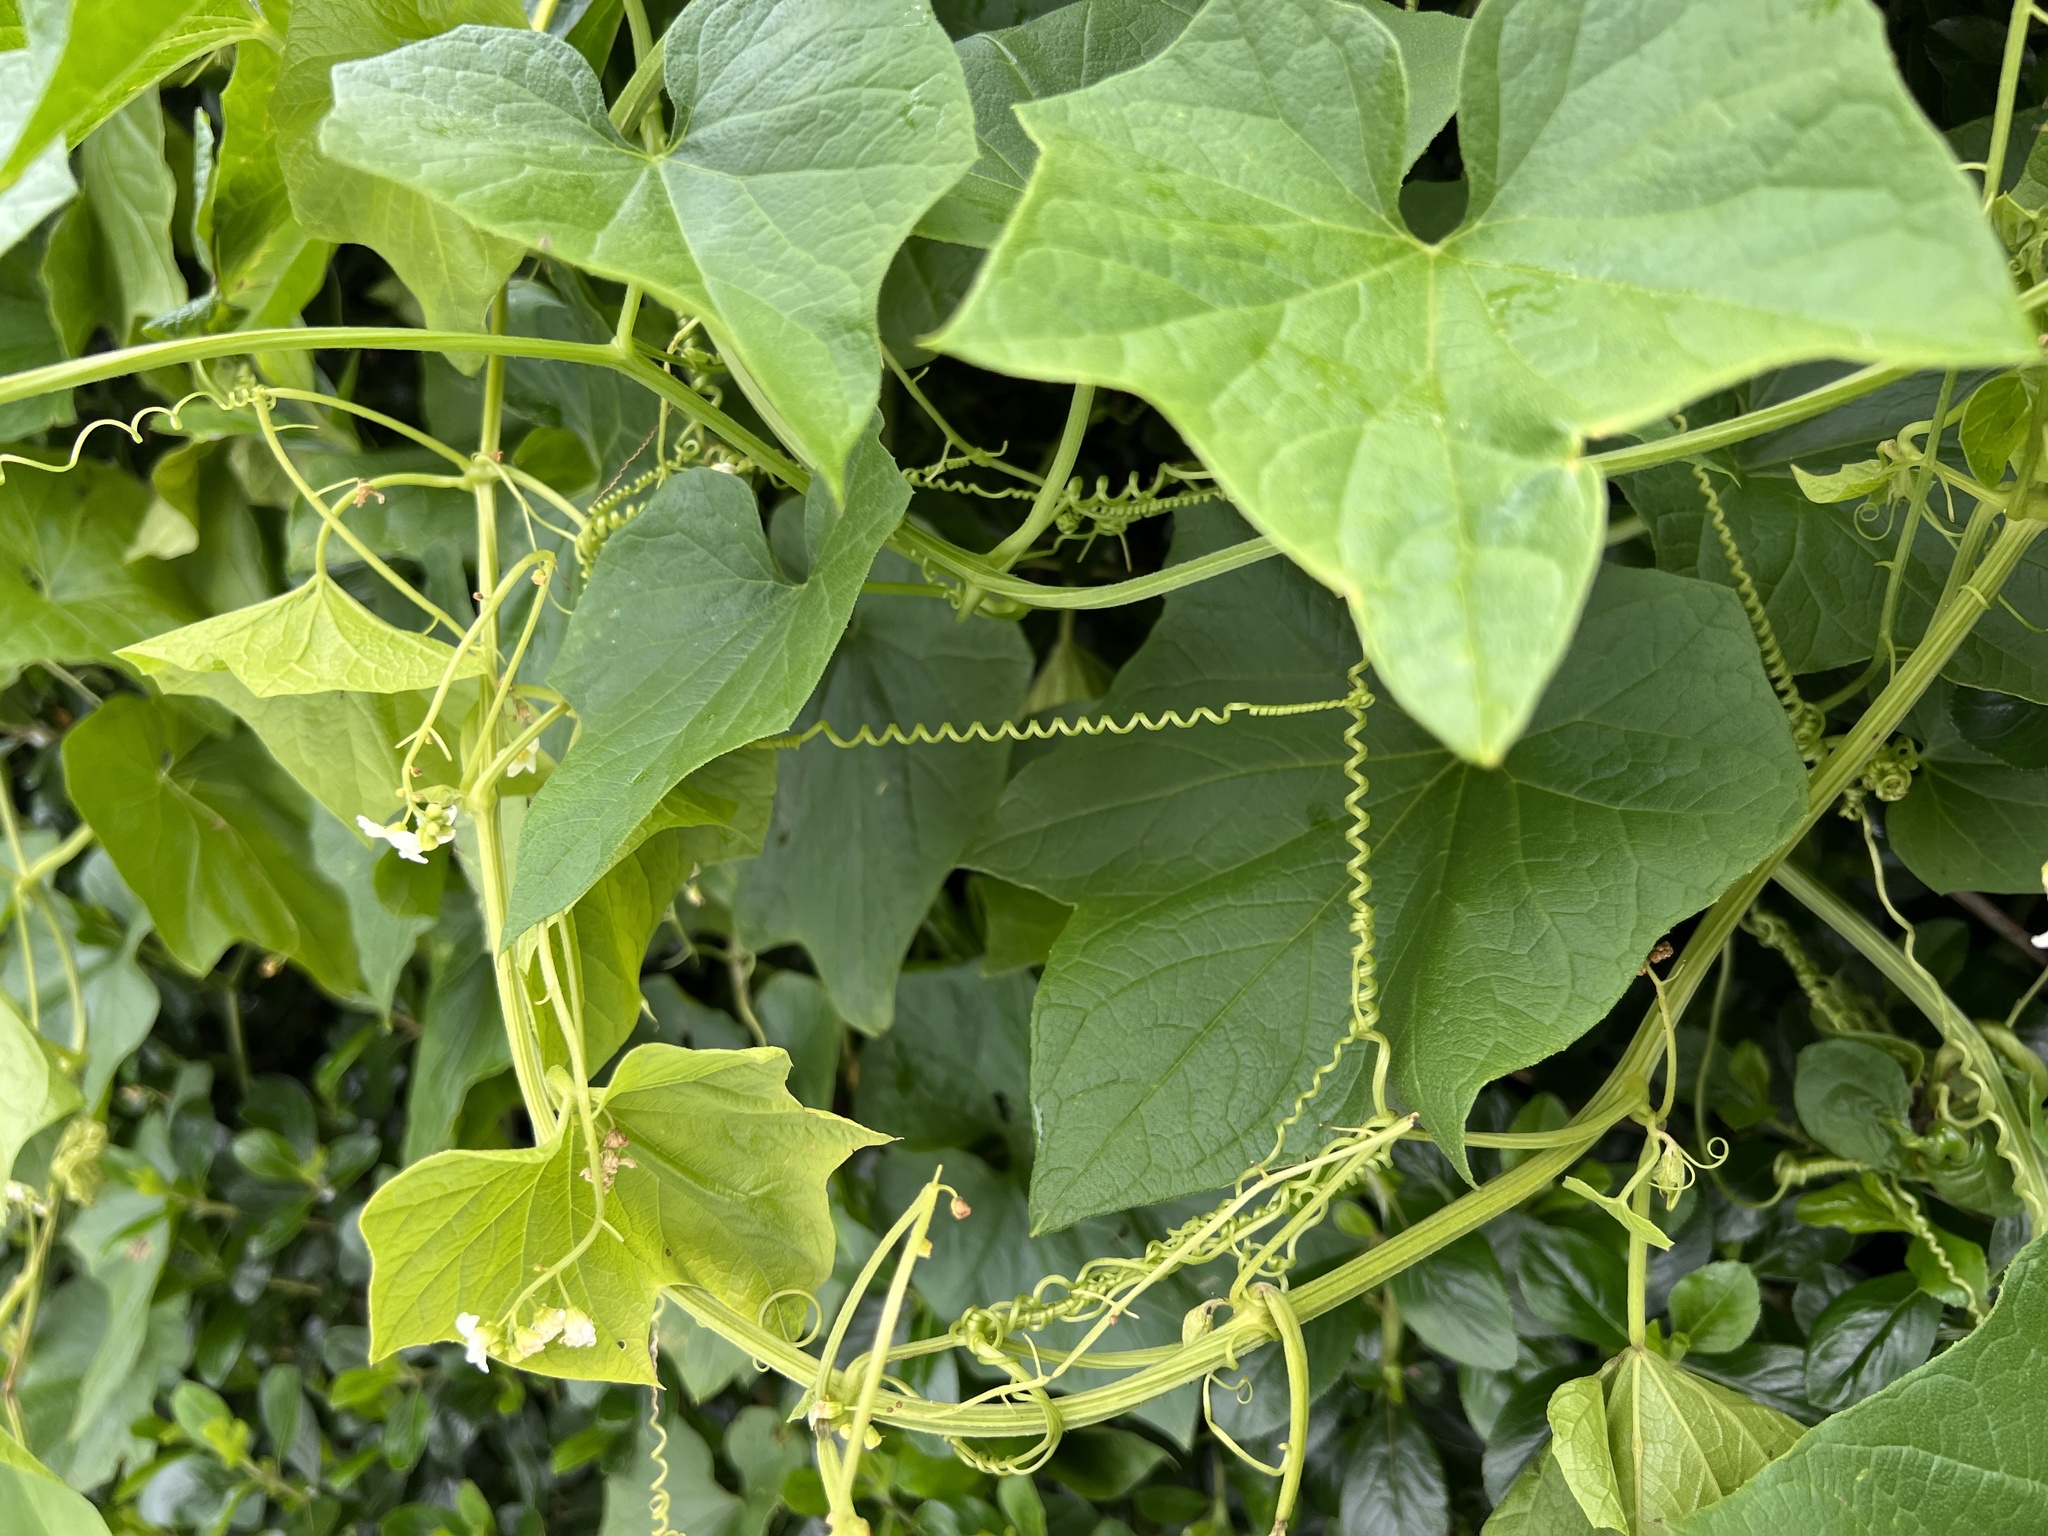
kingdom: Plantae
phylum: Tracheophyta
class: Magnoliopsida
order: Cucurbitales
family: Cucurbitaceae
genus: Marah
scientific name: Marah oregana
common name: Coastal manroot
